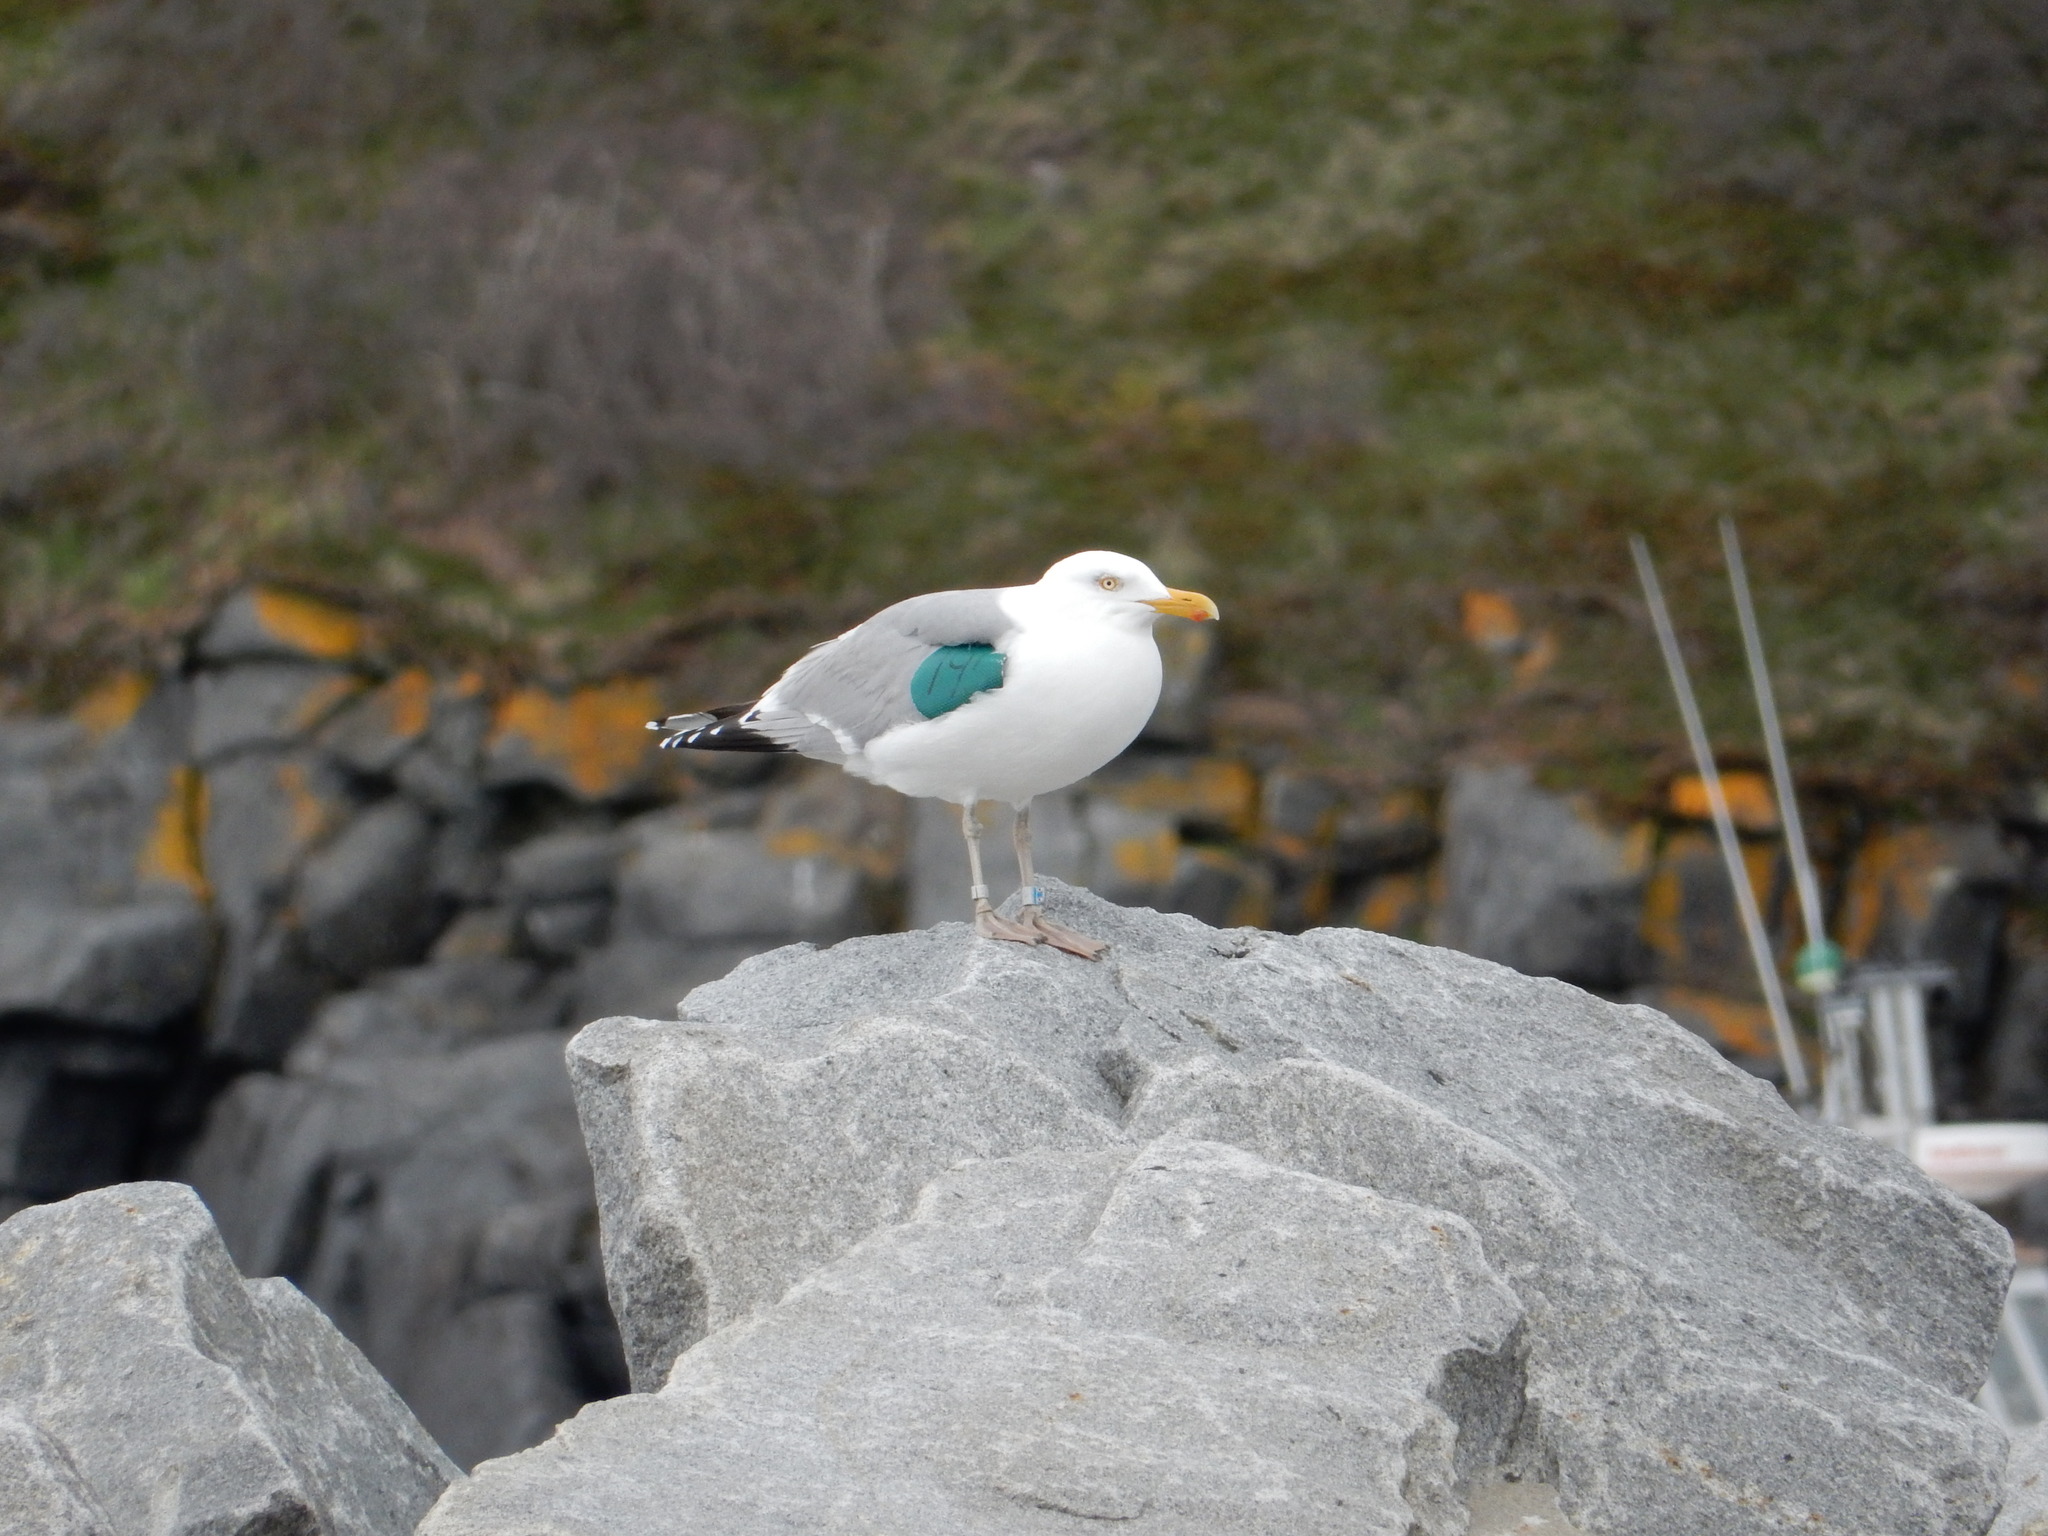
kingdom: Animalia
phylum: Chordata
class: Aves
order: Charadriiformes
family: Laridae
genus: Larus
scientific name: Larus argentatus
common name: Herring gull
